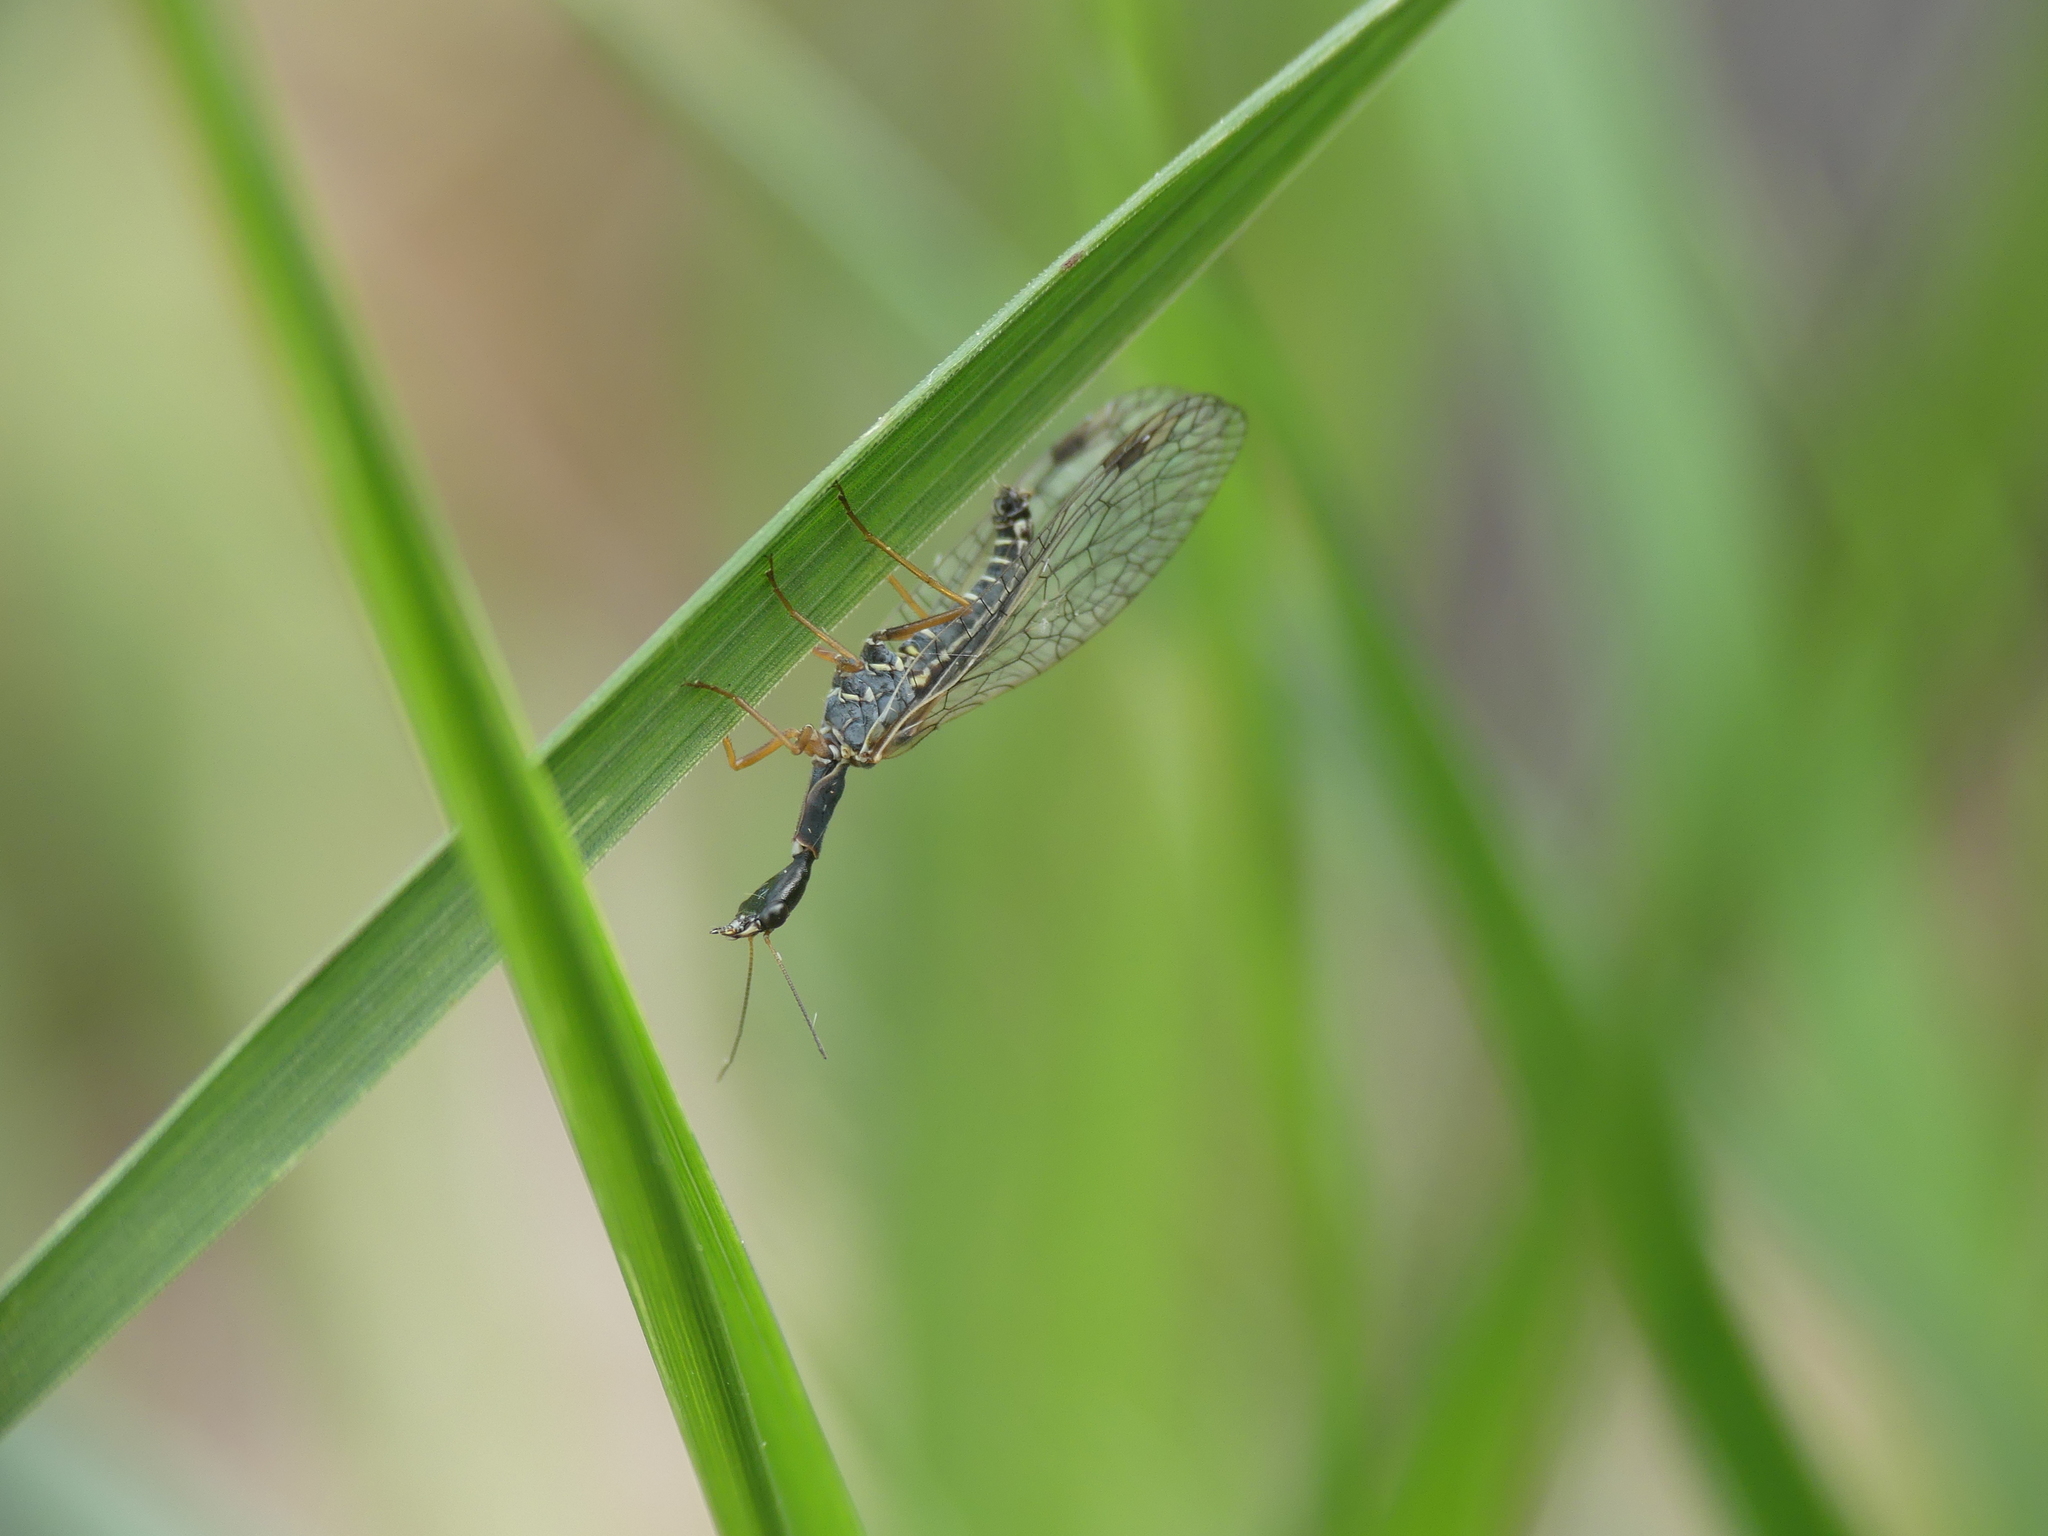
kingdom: Animalia
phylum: Arthropoda
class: Insecta
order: Raphidioptera
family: Raphidiidae
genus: Dichrostigma
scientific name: Dichrostigma flavipes
